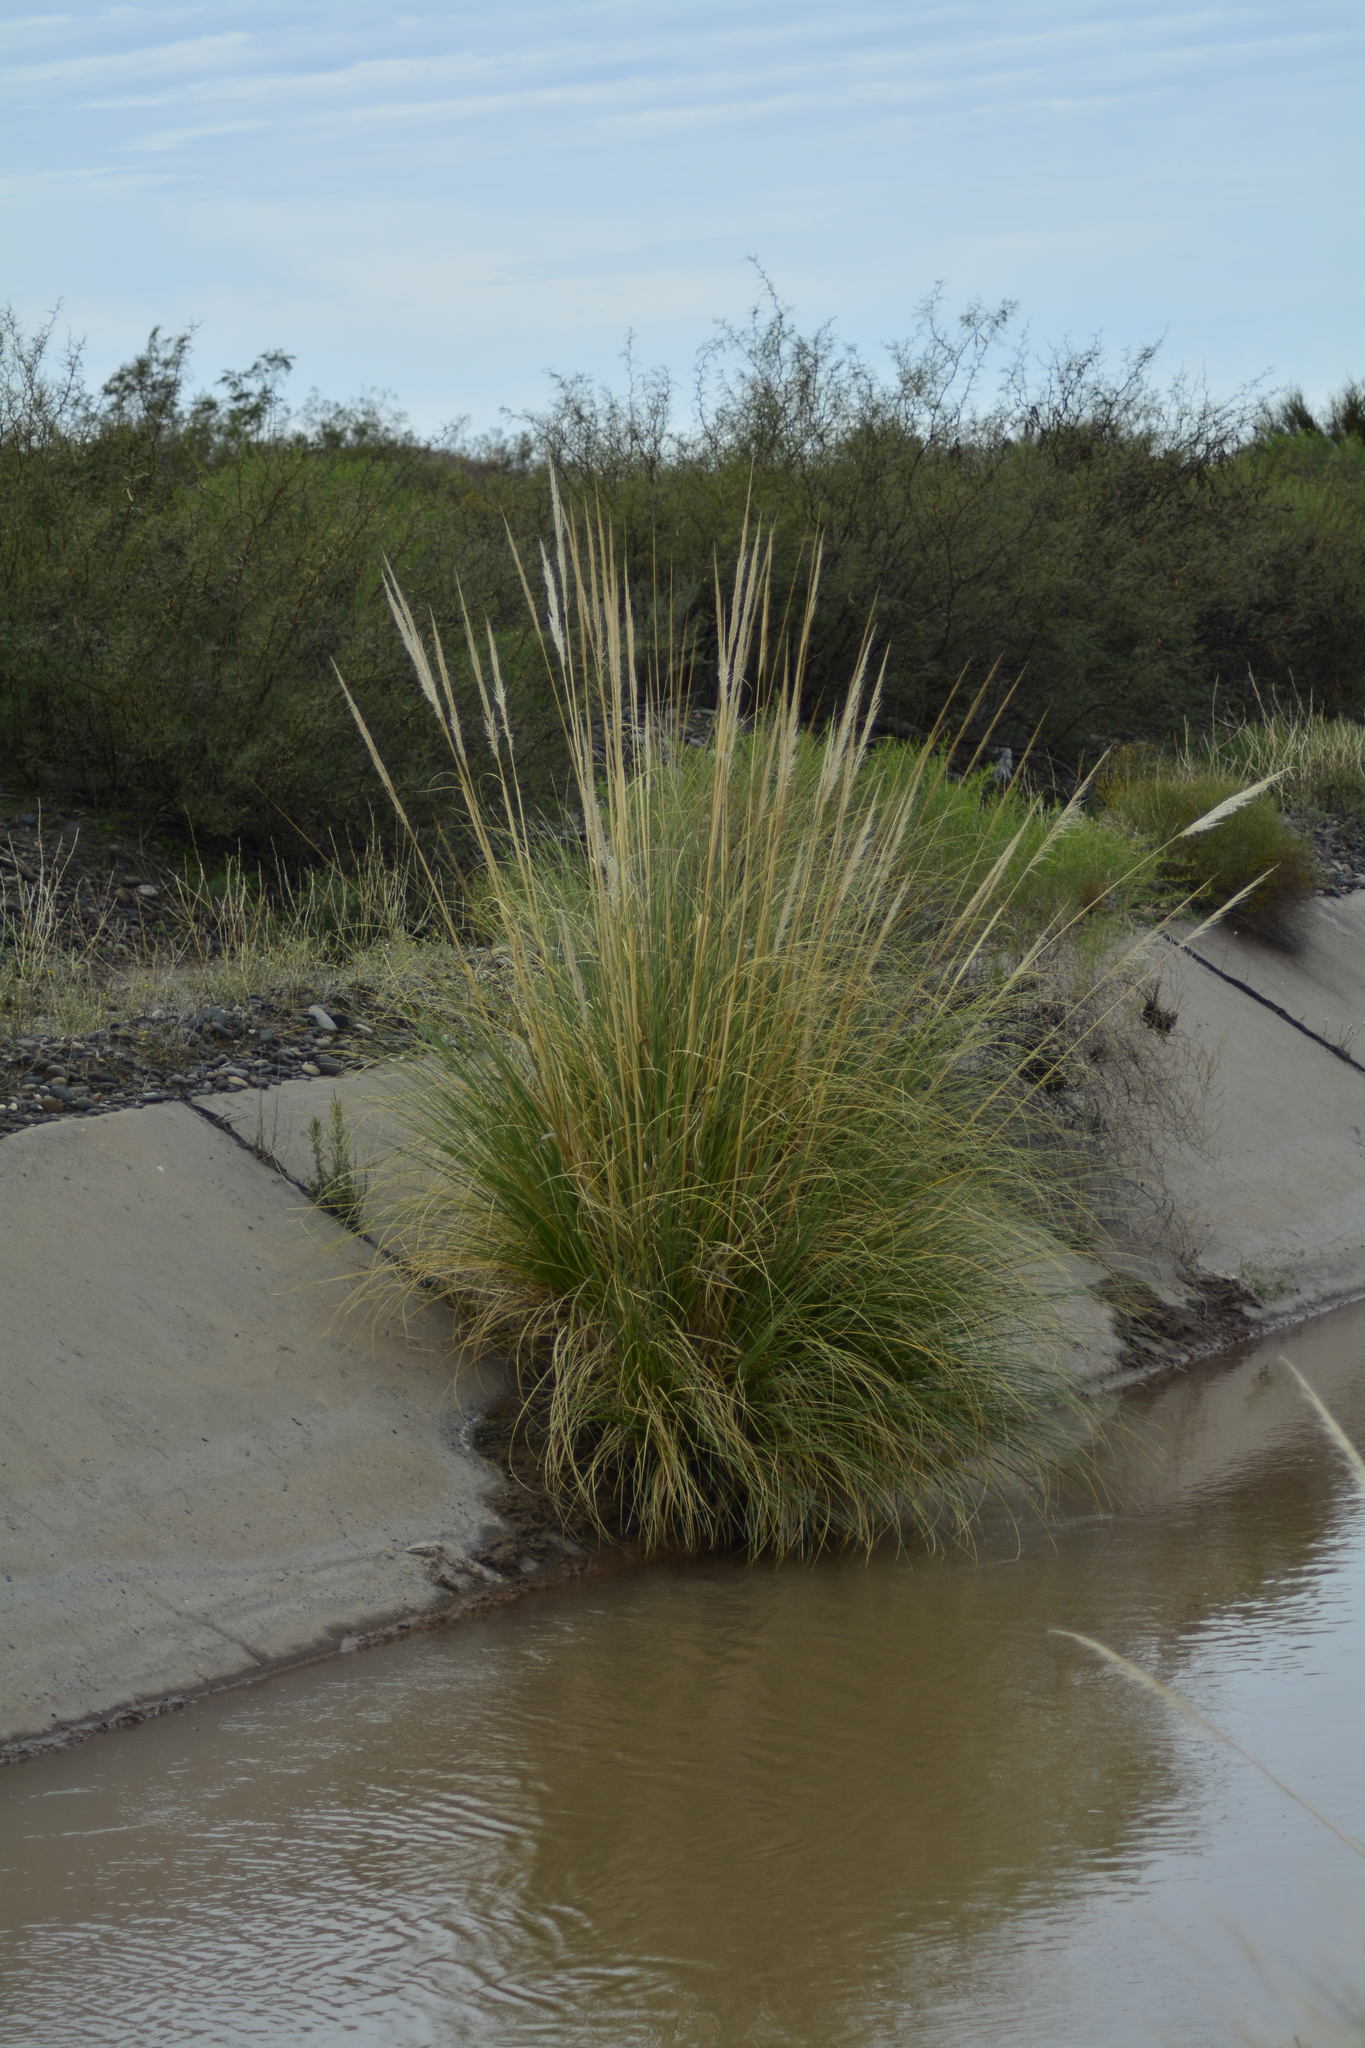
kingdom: Plantae
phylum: Tracheophyta
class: Liliopsida
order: Poales
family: Poaceae
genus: Cortaderia
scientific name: Cortaderia selloana
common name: Uruguayan pampas grass
